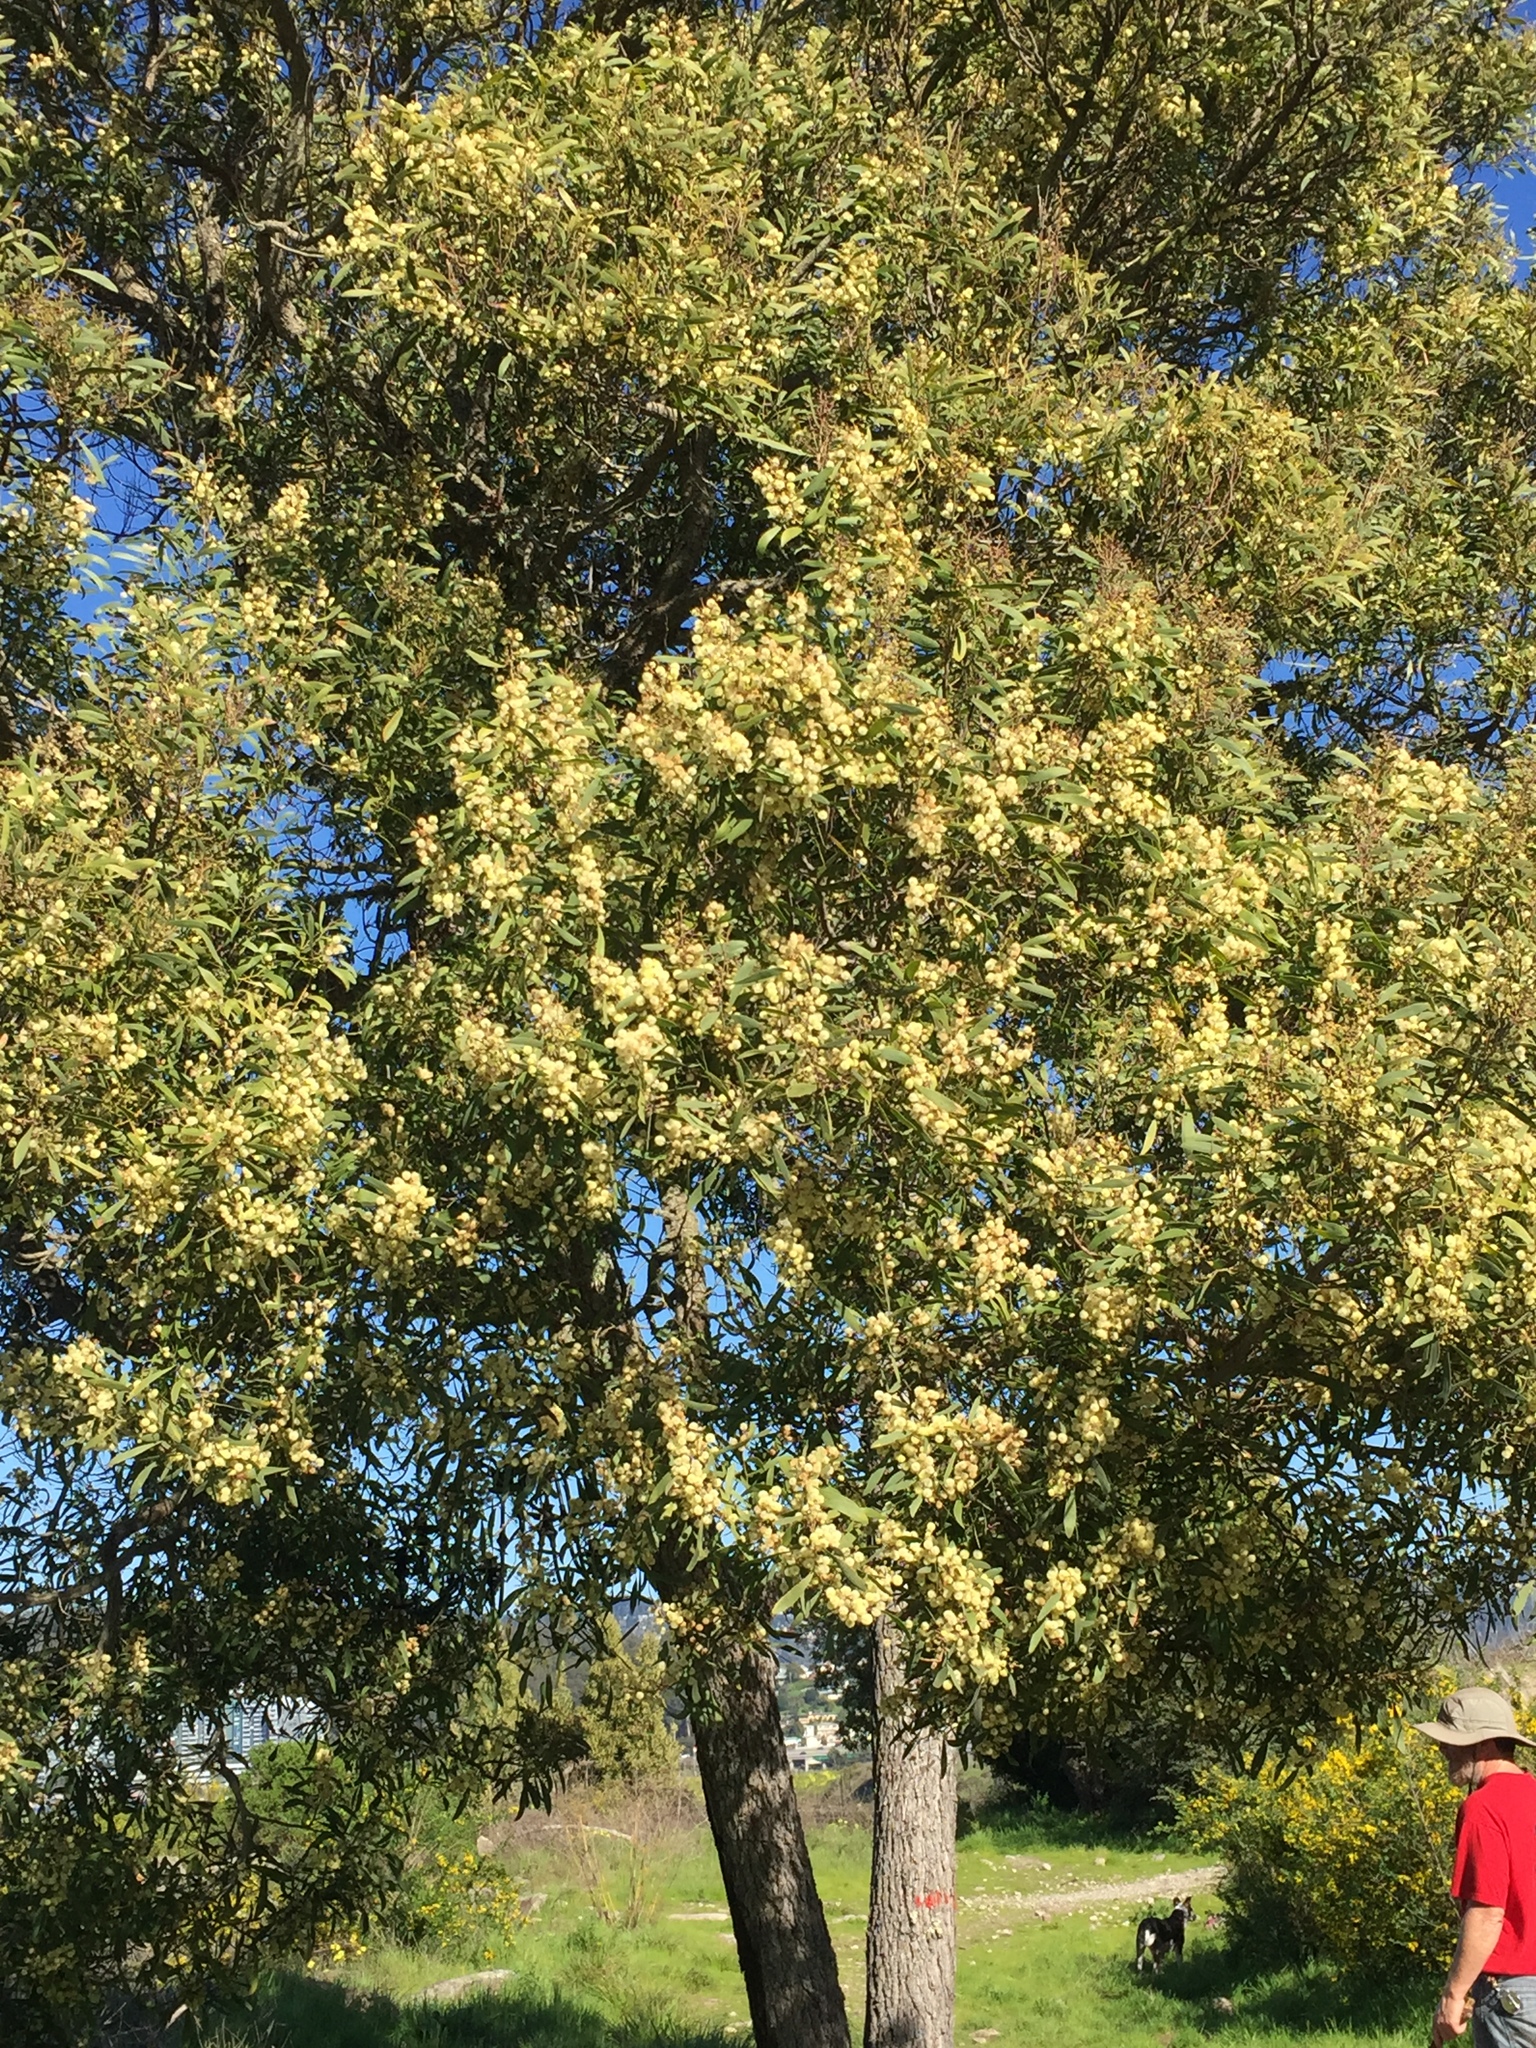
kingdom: Plantae
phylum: Tracheophyta
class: Magnoliopsida
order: Fabales
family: Fabaceae
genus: Acacia
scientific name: Acacia melanoxylon
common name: Blackwood
